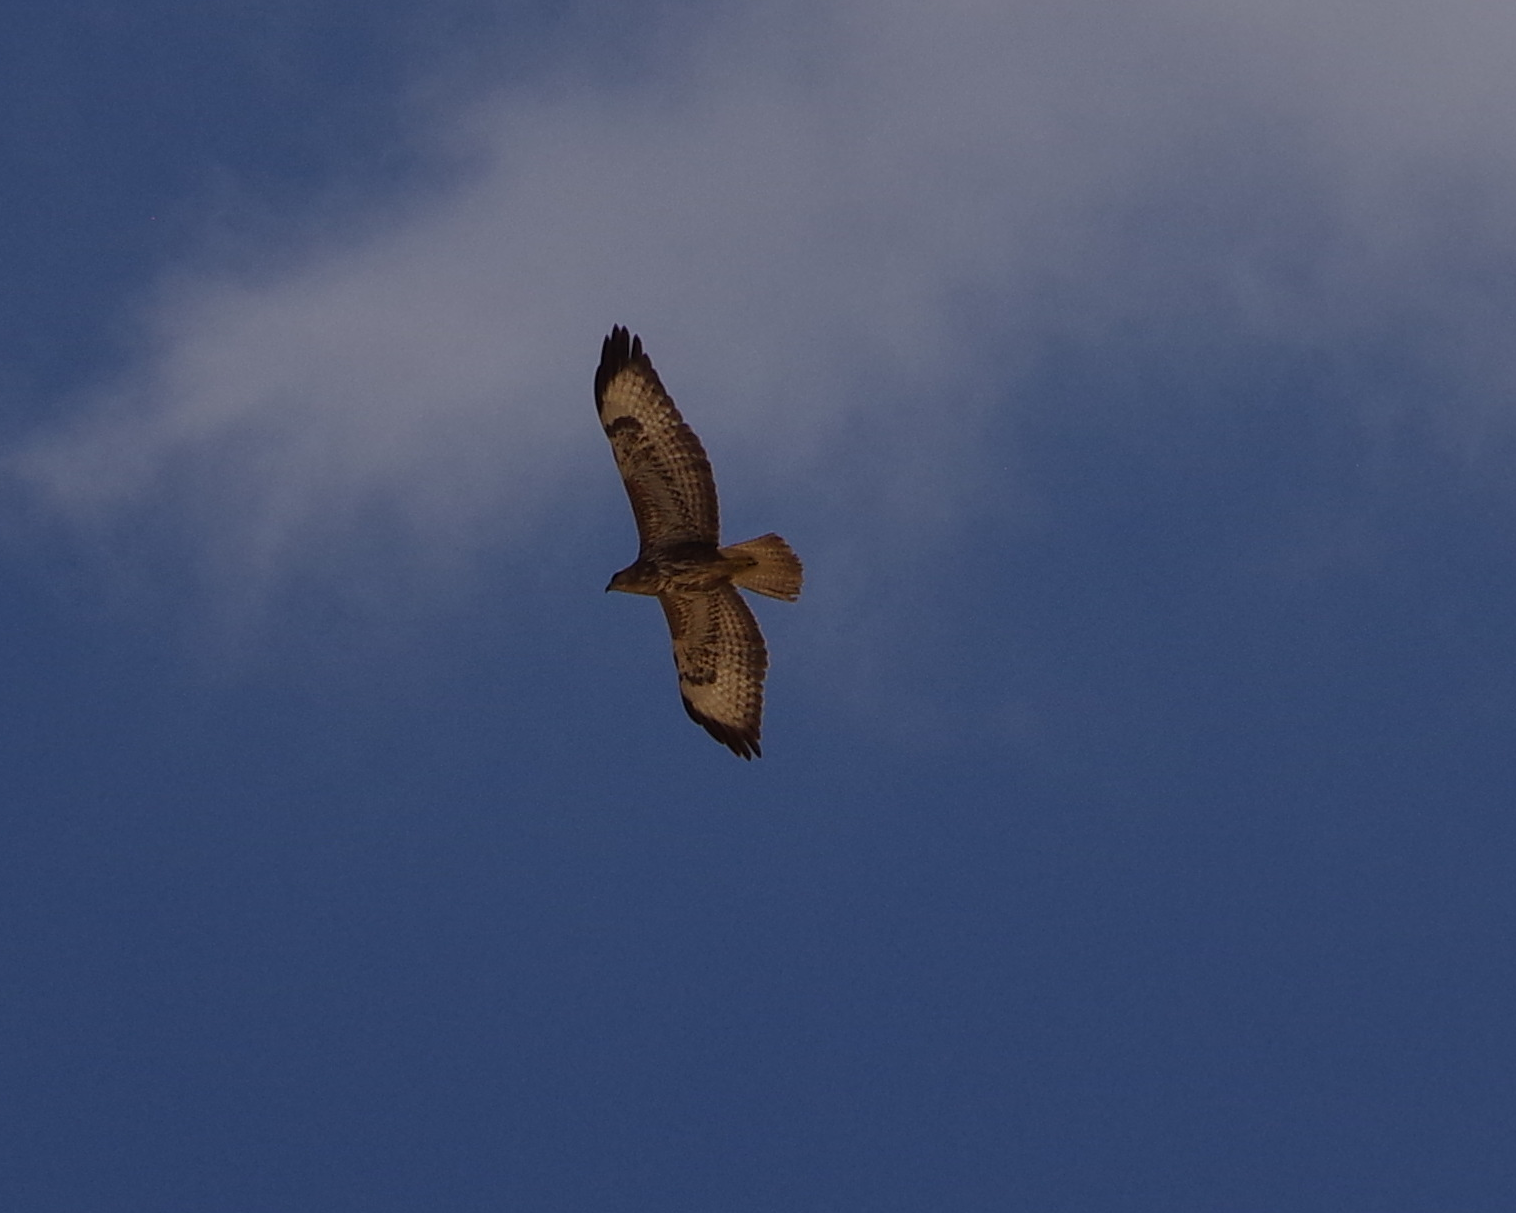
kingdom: Animalia
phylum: Chordata
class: Aves
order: Accipitriformes
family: Accipitridae
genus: Buteo
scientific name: Buteo buteo
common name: Common buzzard
